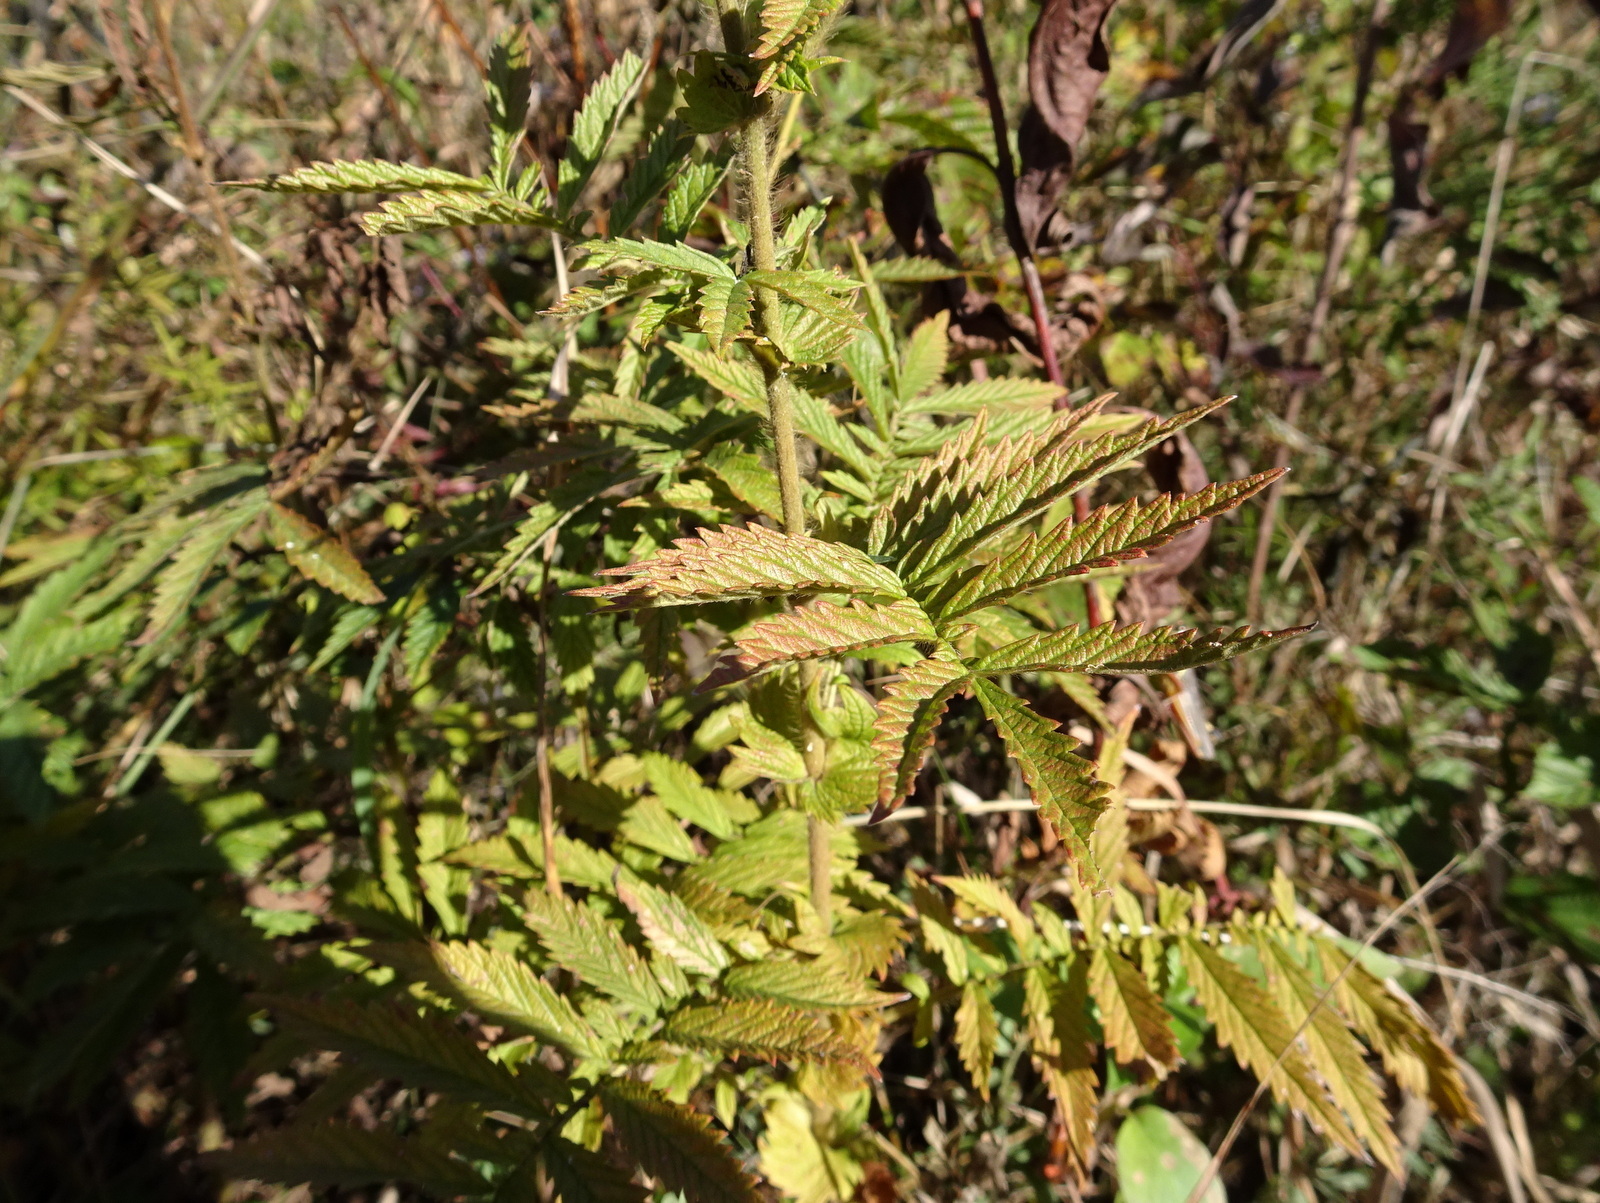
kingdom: Plantae
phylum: Tracheophyta
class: Magnoliopsida
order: Rosales
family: Rosaceae
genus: Agrimonia
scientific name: Agrimonia parviflora
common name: Harvest-lice
